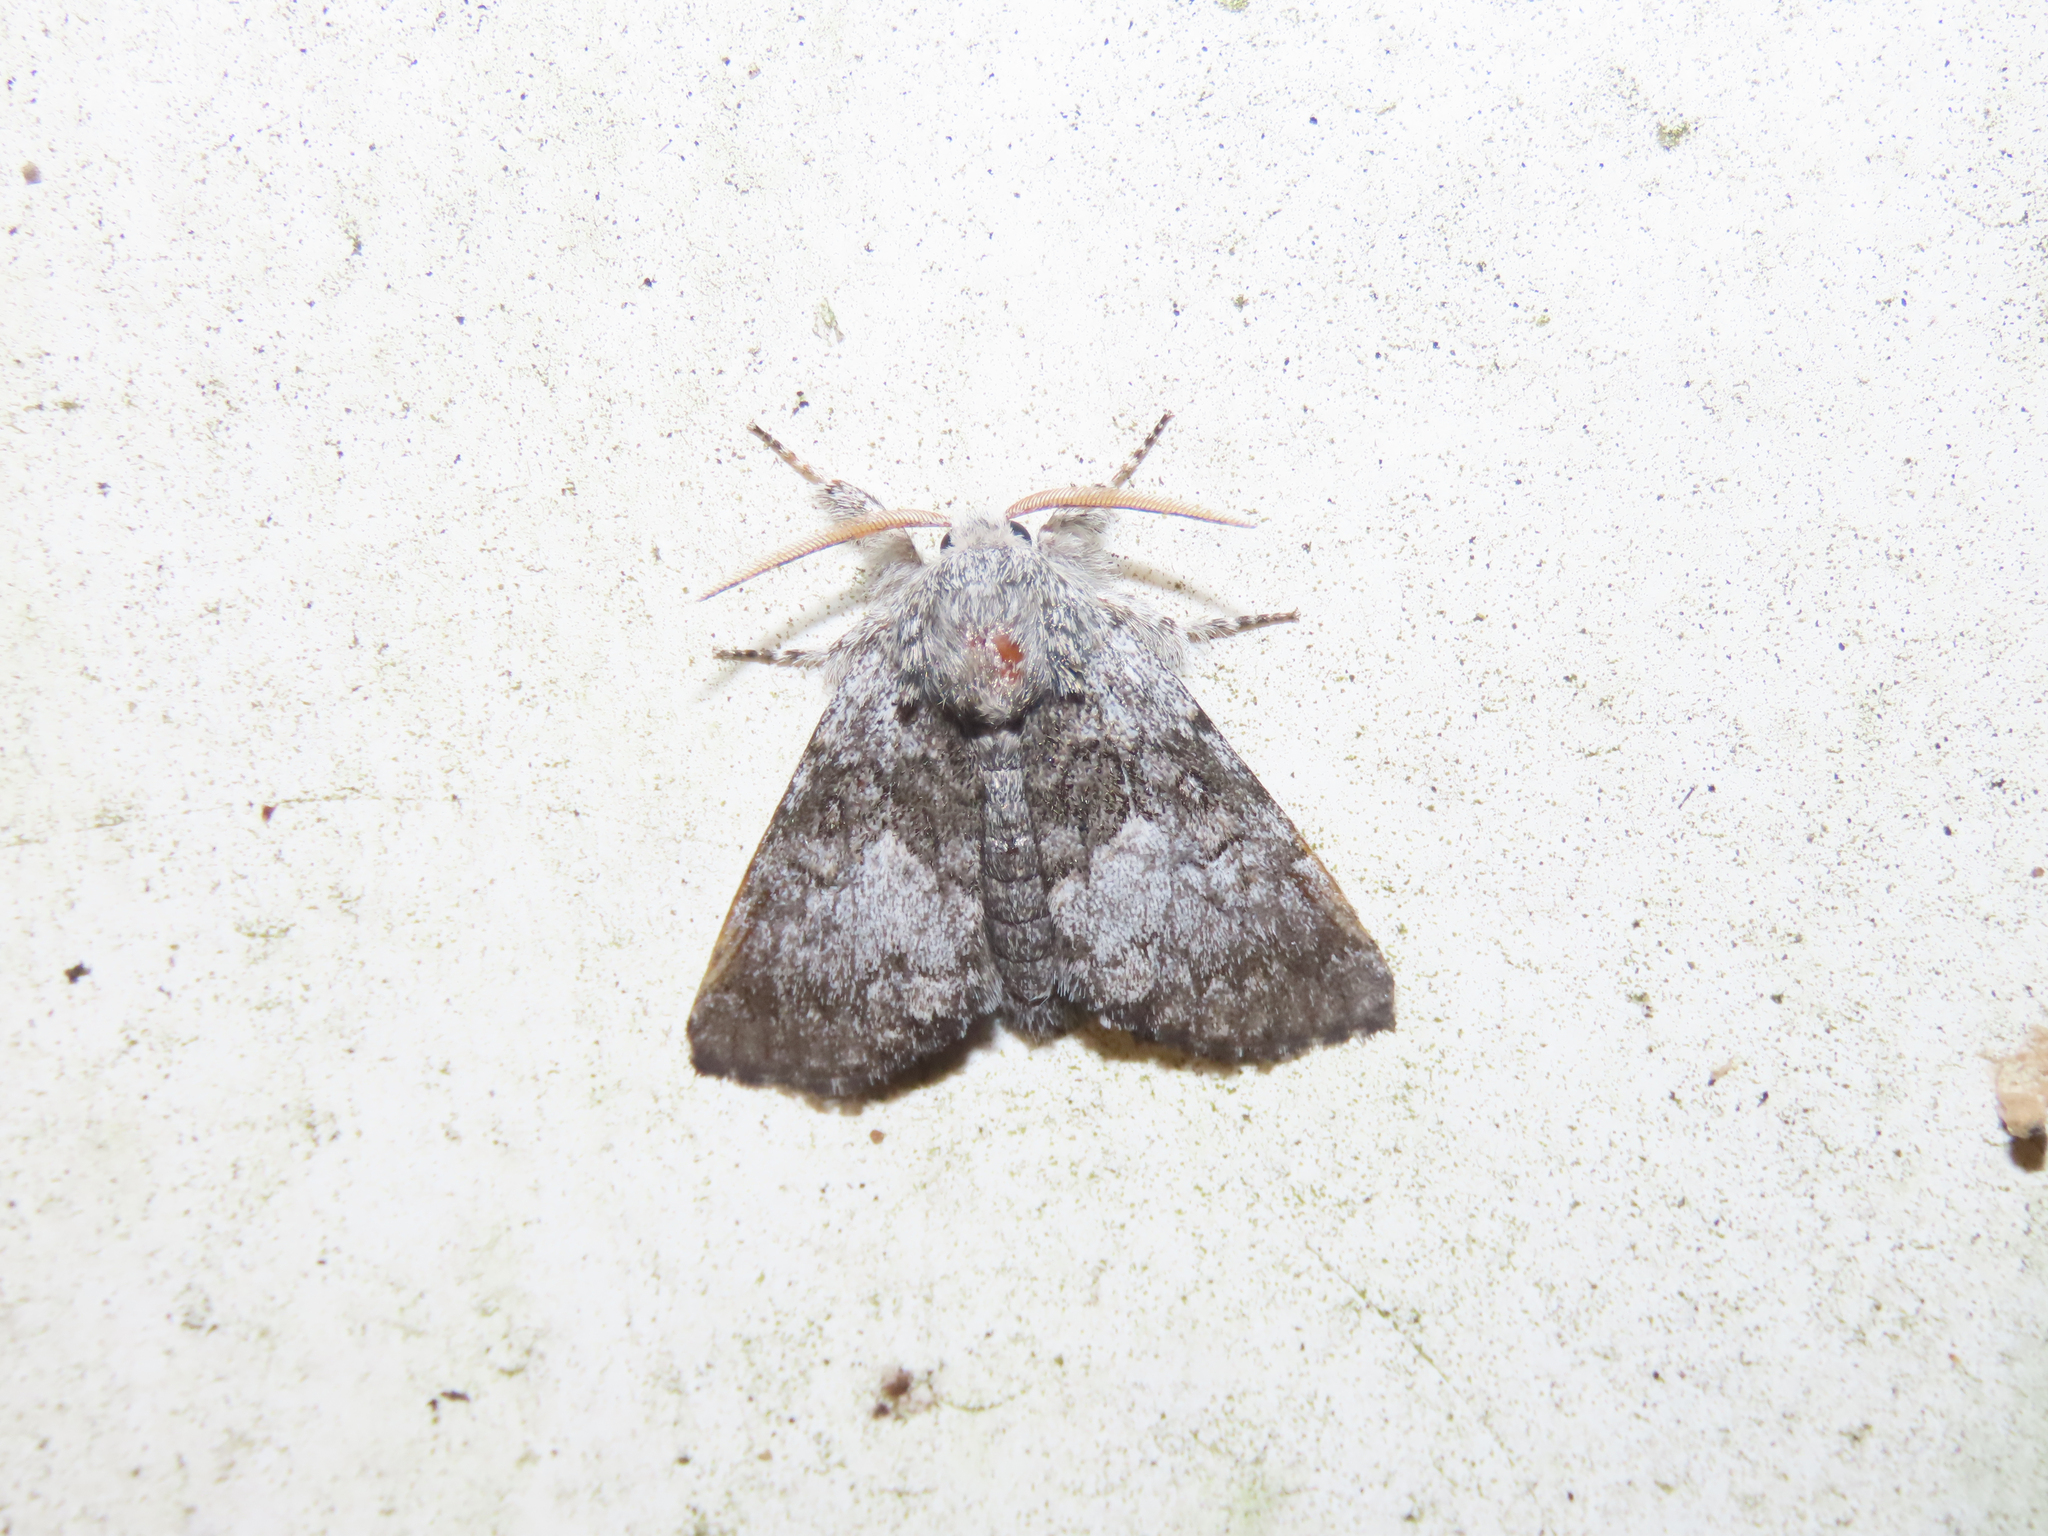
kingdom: Animalia
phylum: Arthropoda
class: Insecta
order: Lepidoptera
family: Noctuidae
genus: Colocasia
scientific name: Colocasia propinquilinea
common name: Close-banded demas
